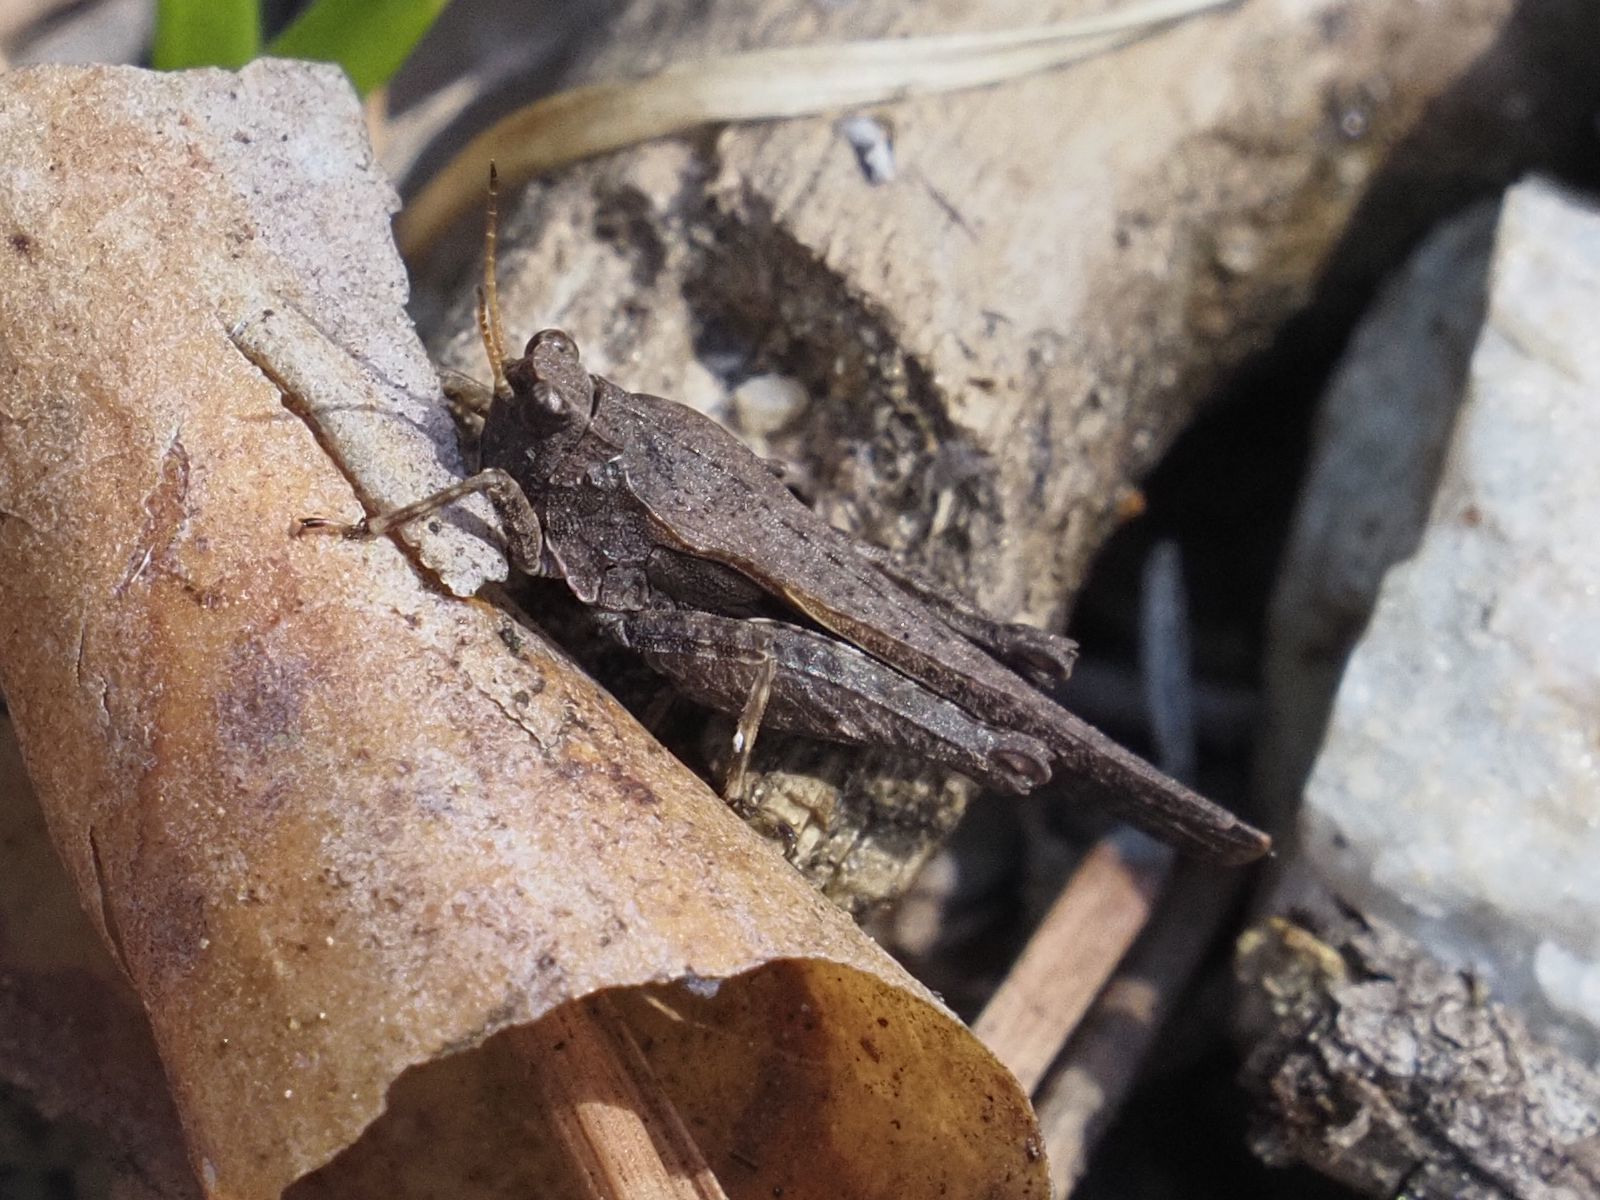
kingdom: Animalia
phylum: Arthropoda
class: Insecta
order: Orthoptera
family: Tetrigidae
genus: Tetrix
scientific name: Tetrix subulata
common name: Slender ground-hopper
